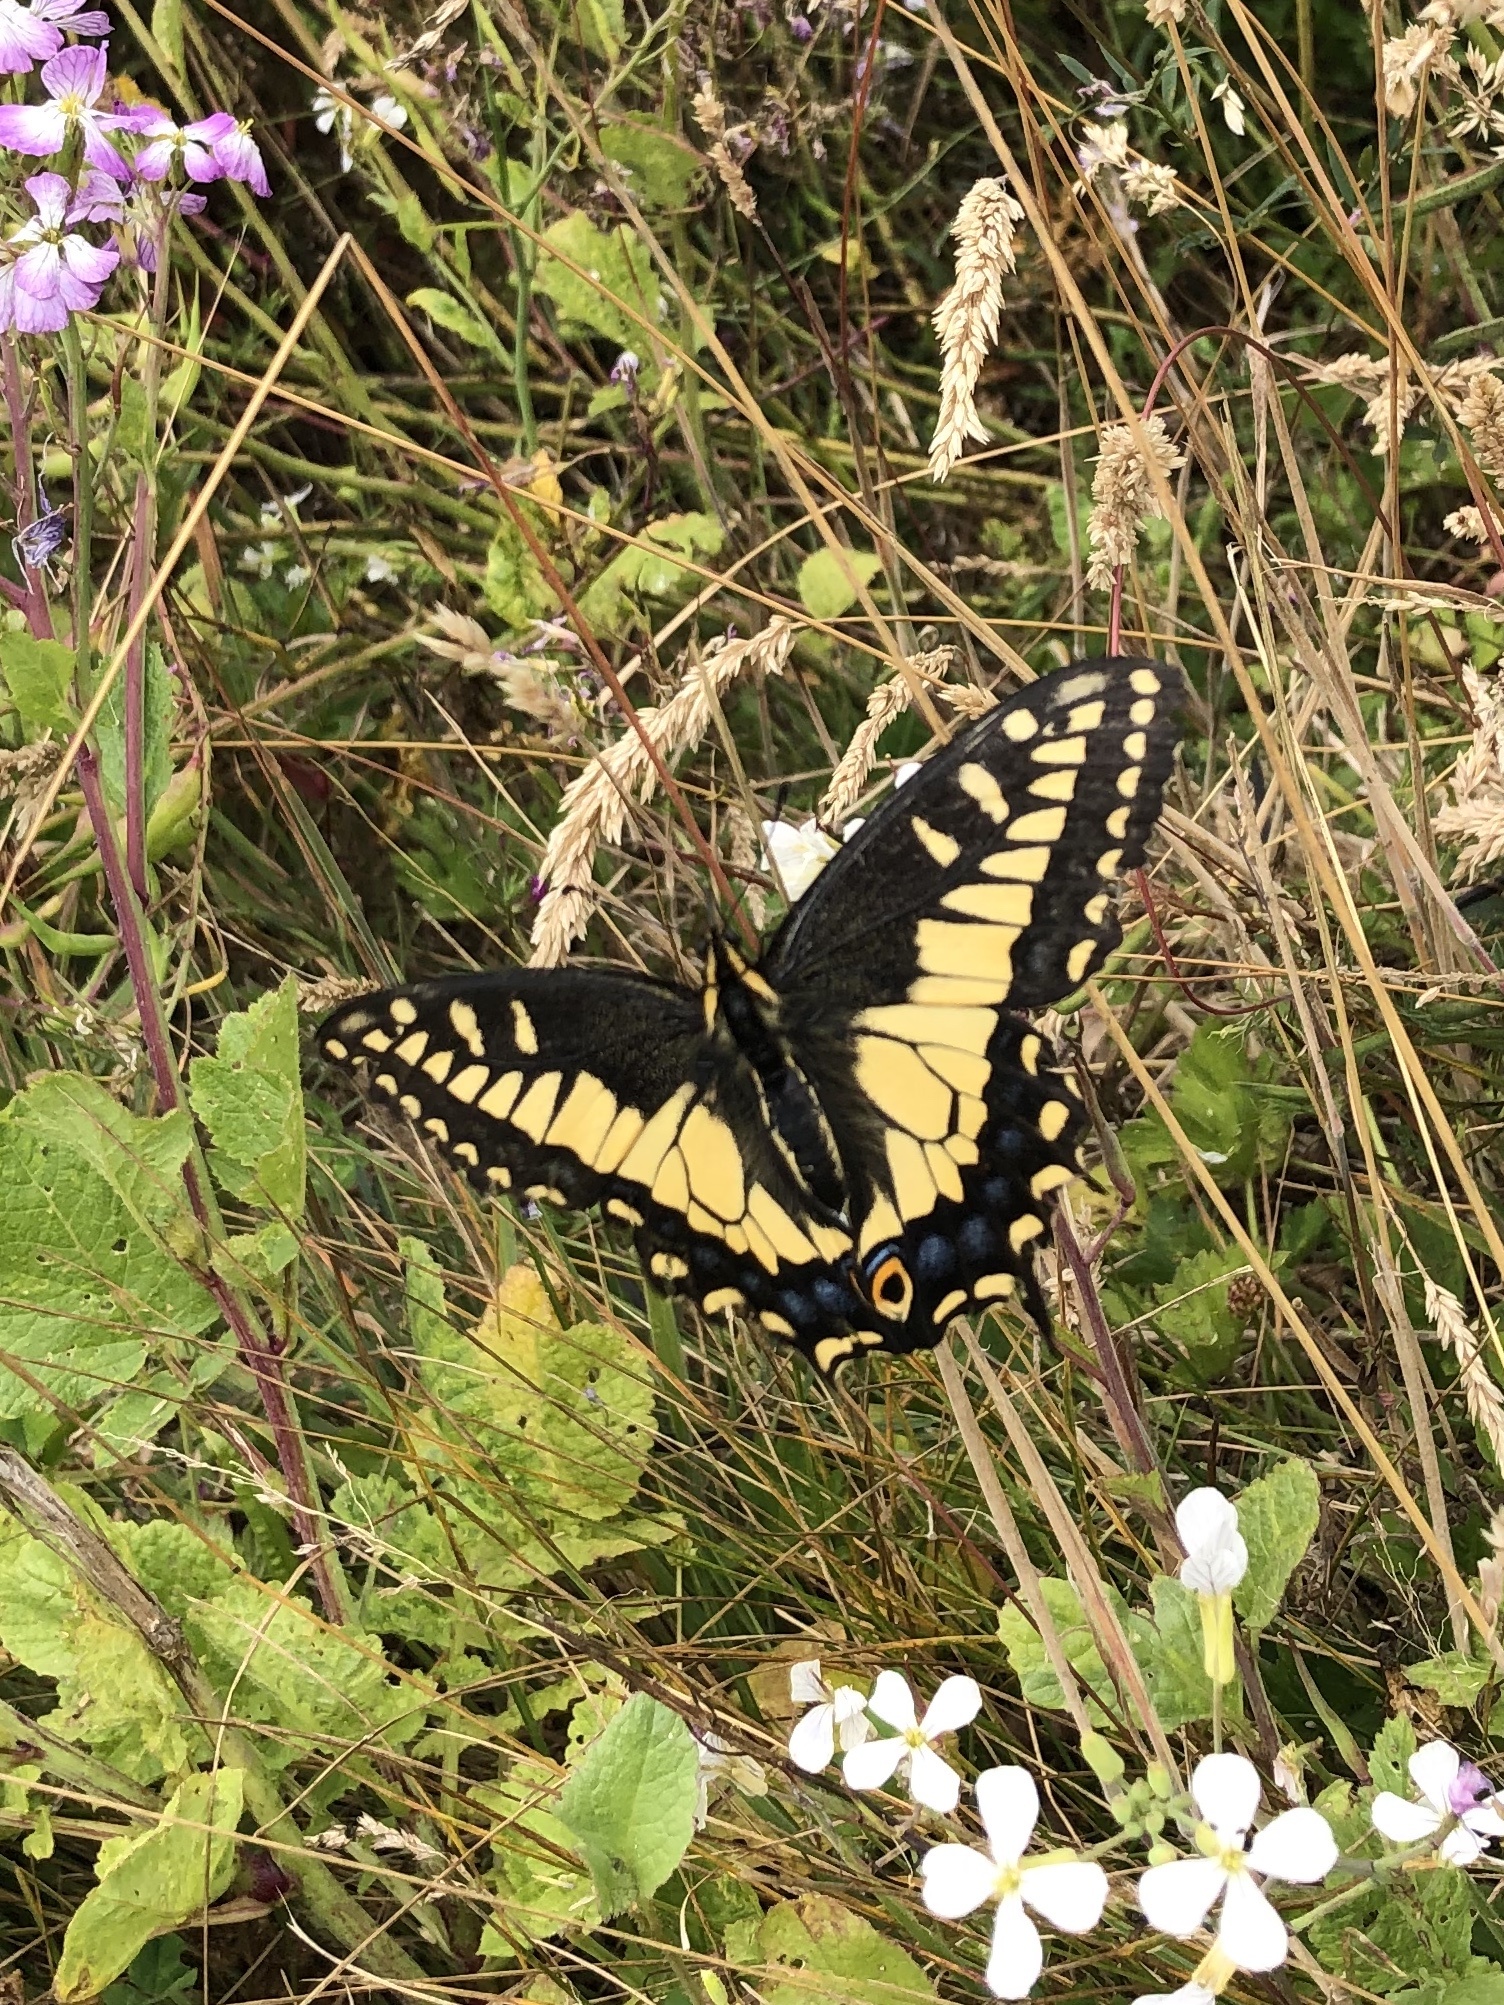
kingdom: Animalia
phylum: Arthropoda
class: Insecta
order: Lepidoptera
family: Papilionidae
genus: Papilio
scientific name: Papilio zelicaon
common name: Anise swallowtail
